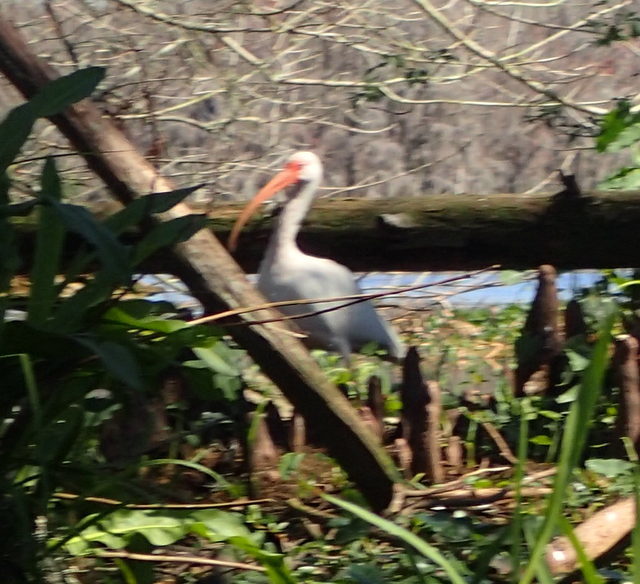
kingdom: Animalia
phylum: Chordata
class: Aves
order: Pelecaniformes
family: Threskiornithidae
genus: Eudocimus
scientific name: Eudocimus albus
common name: White ibis
